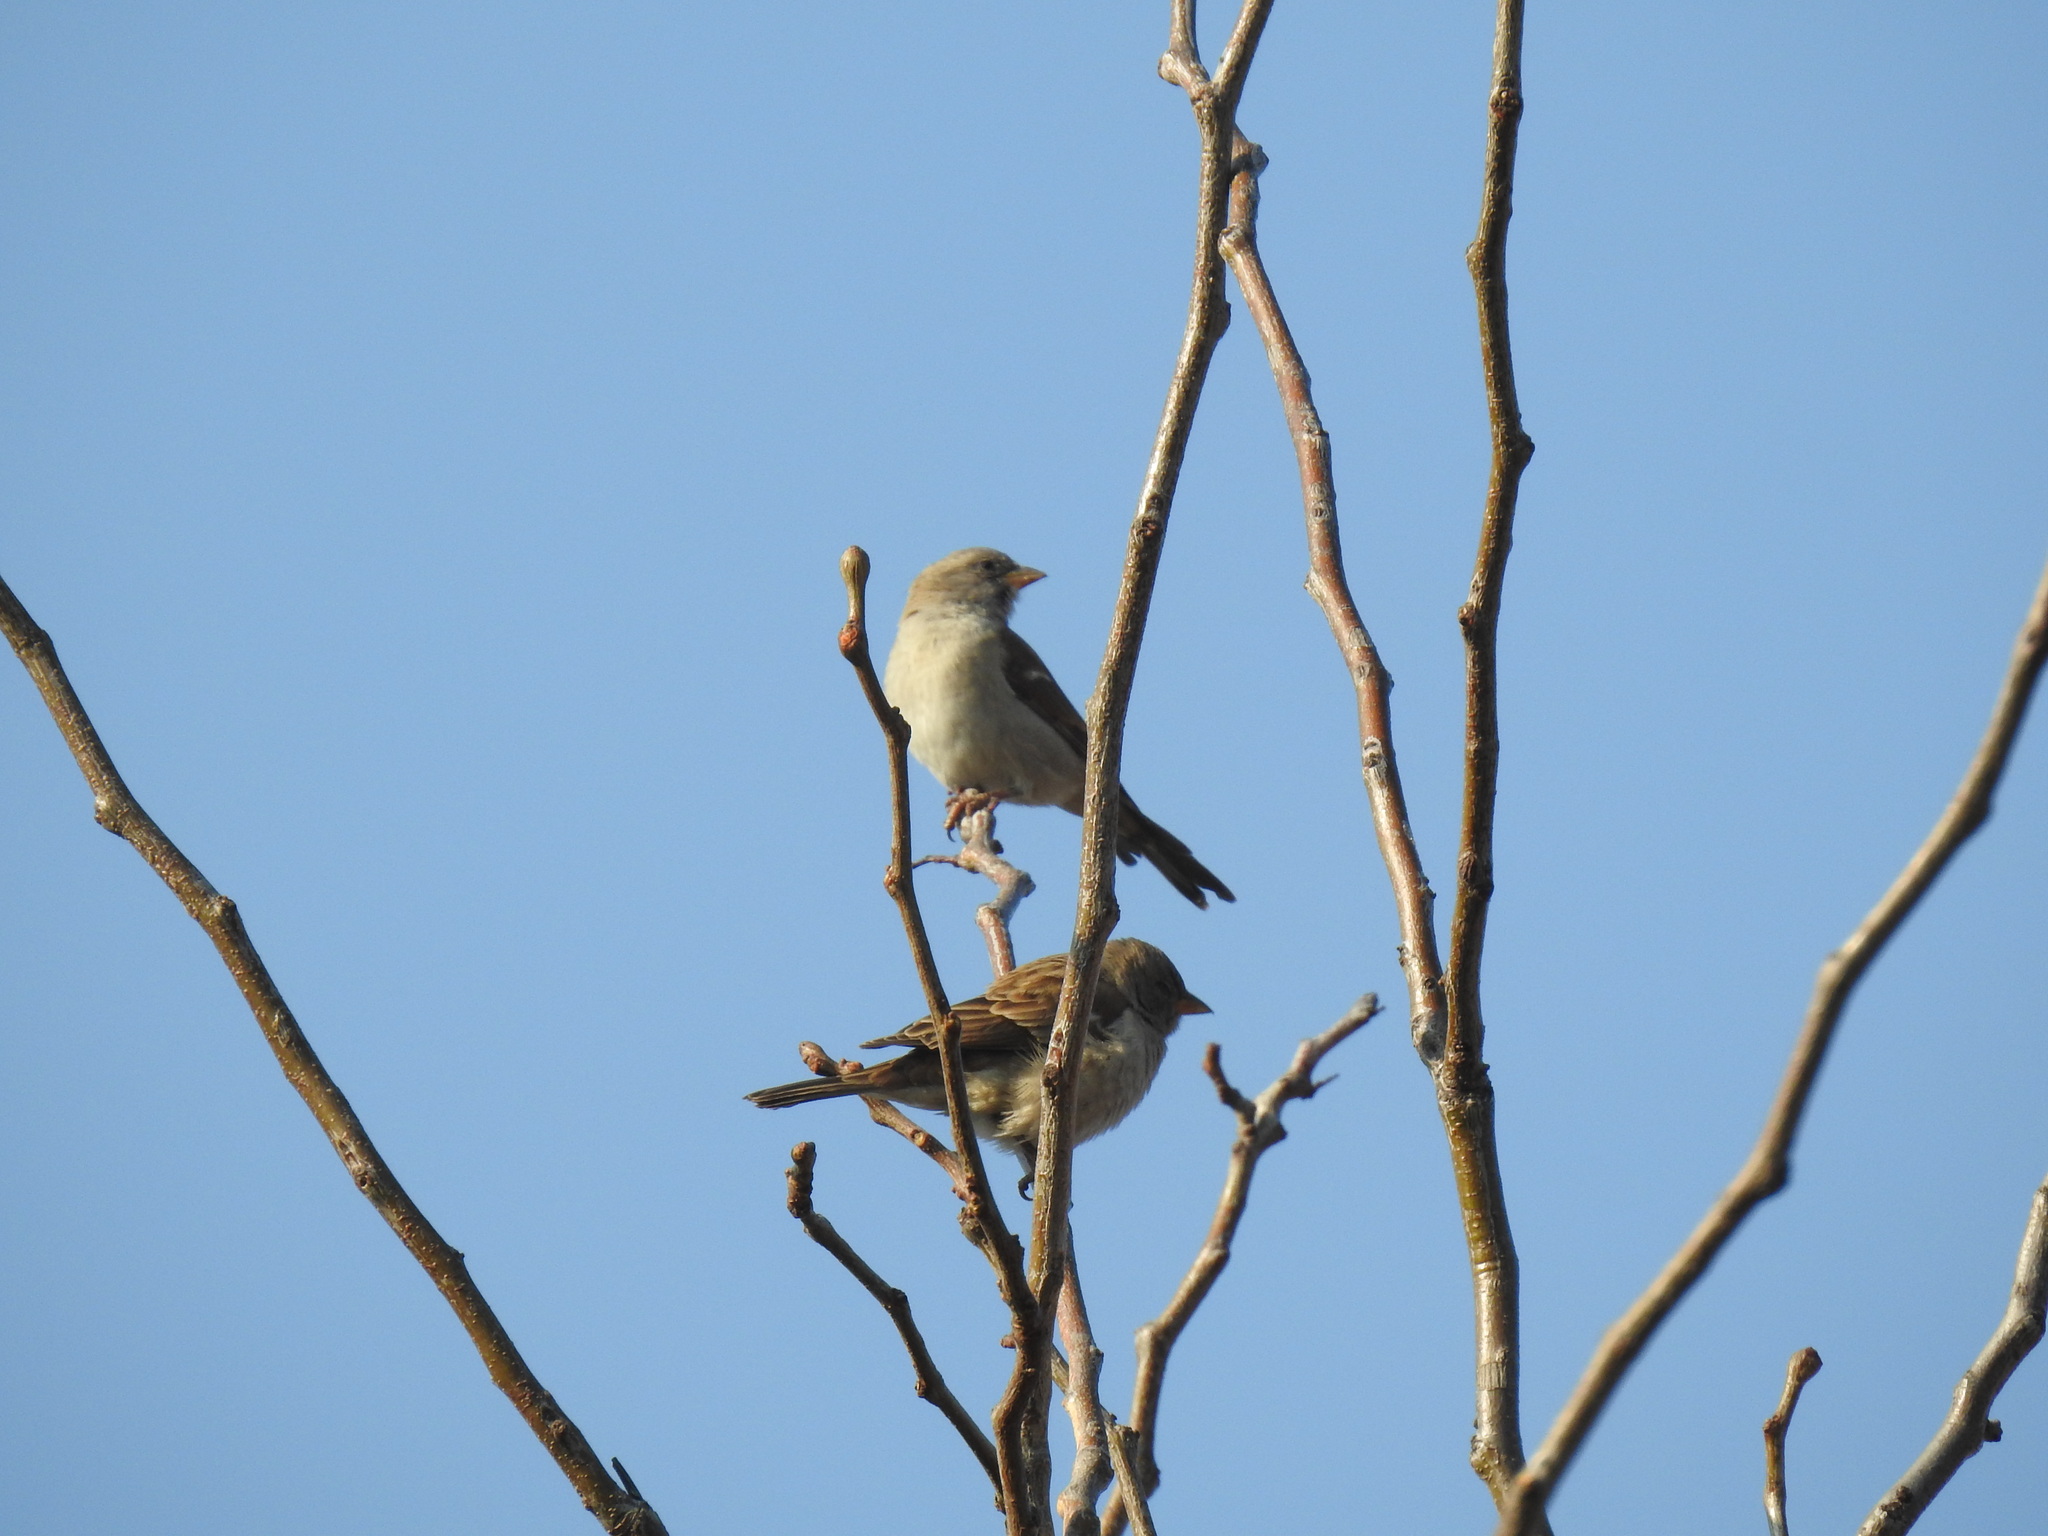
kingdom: Animalia
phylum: Chordata
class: Aves
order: Passeriformes
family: Passeridae
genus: Passer
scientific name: Passer diffusus
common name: Southern grey-headed sparrow
